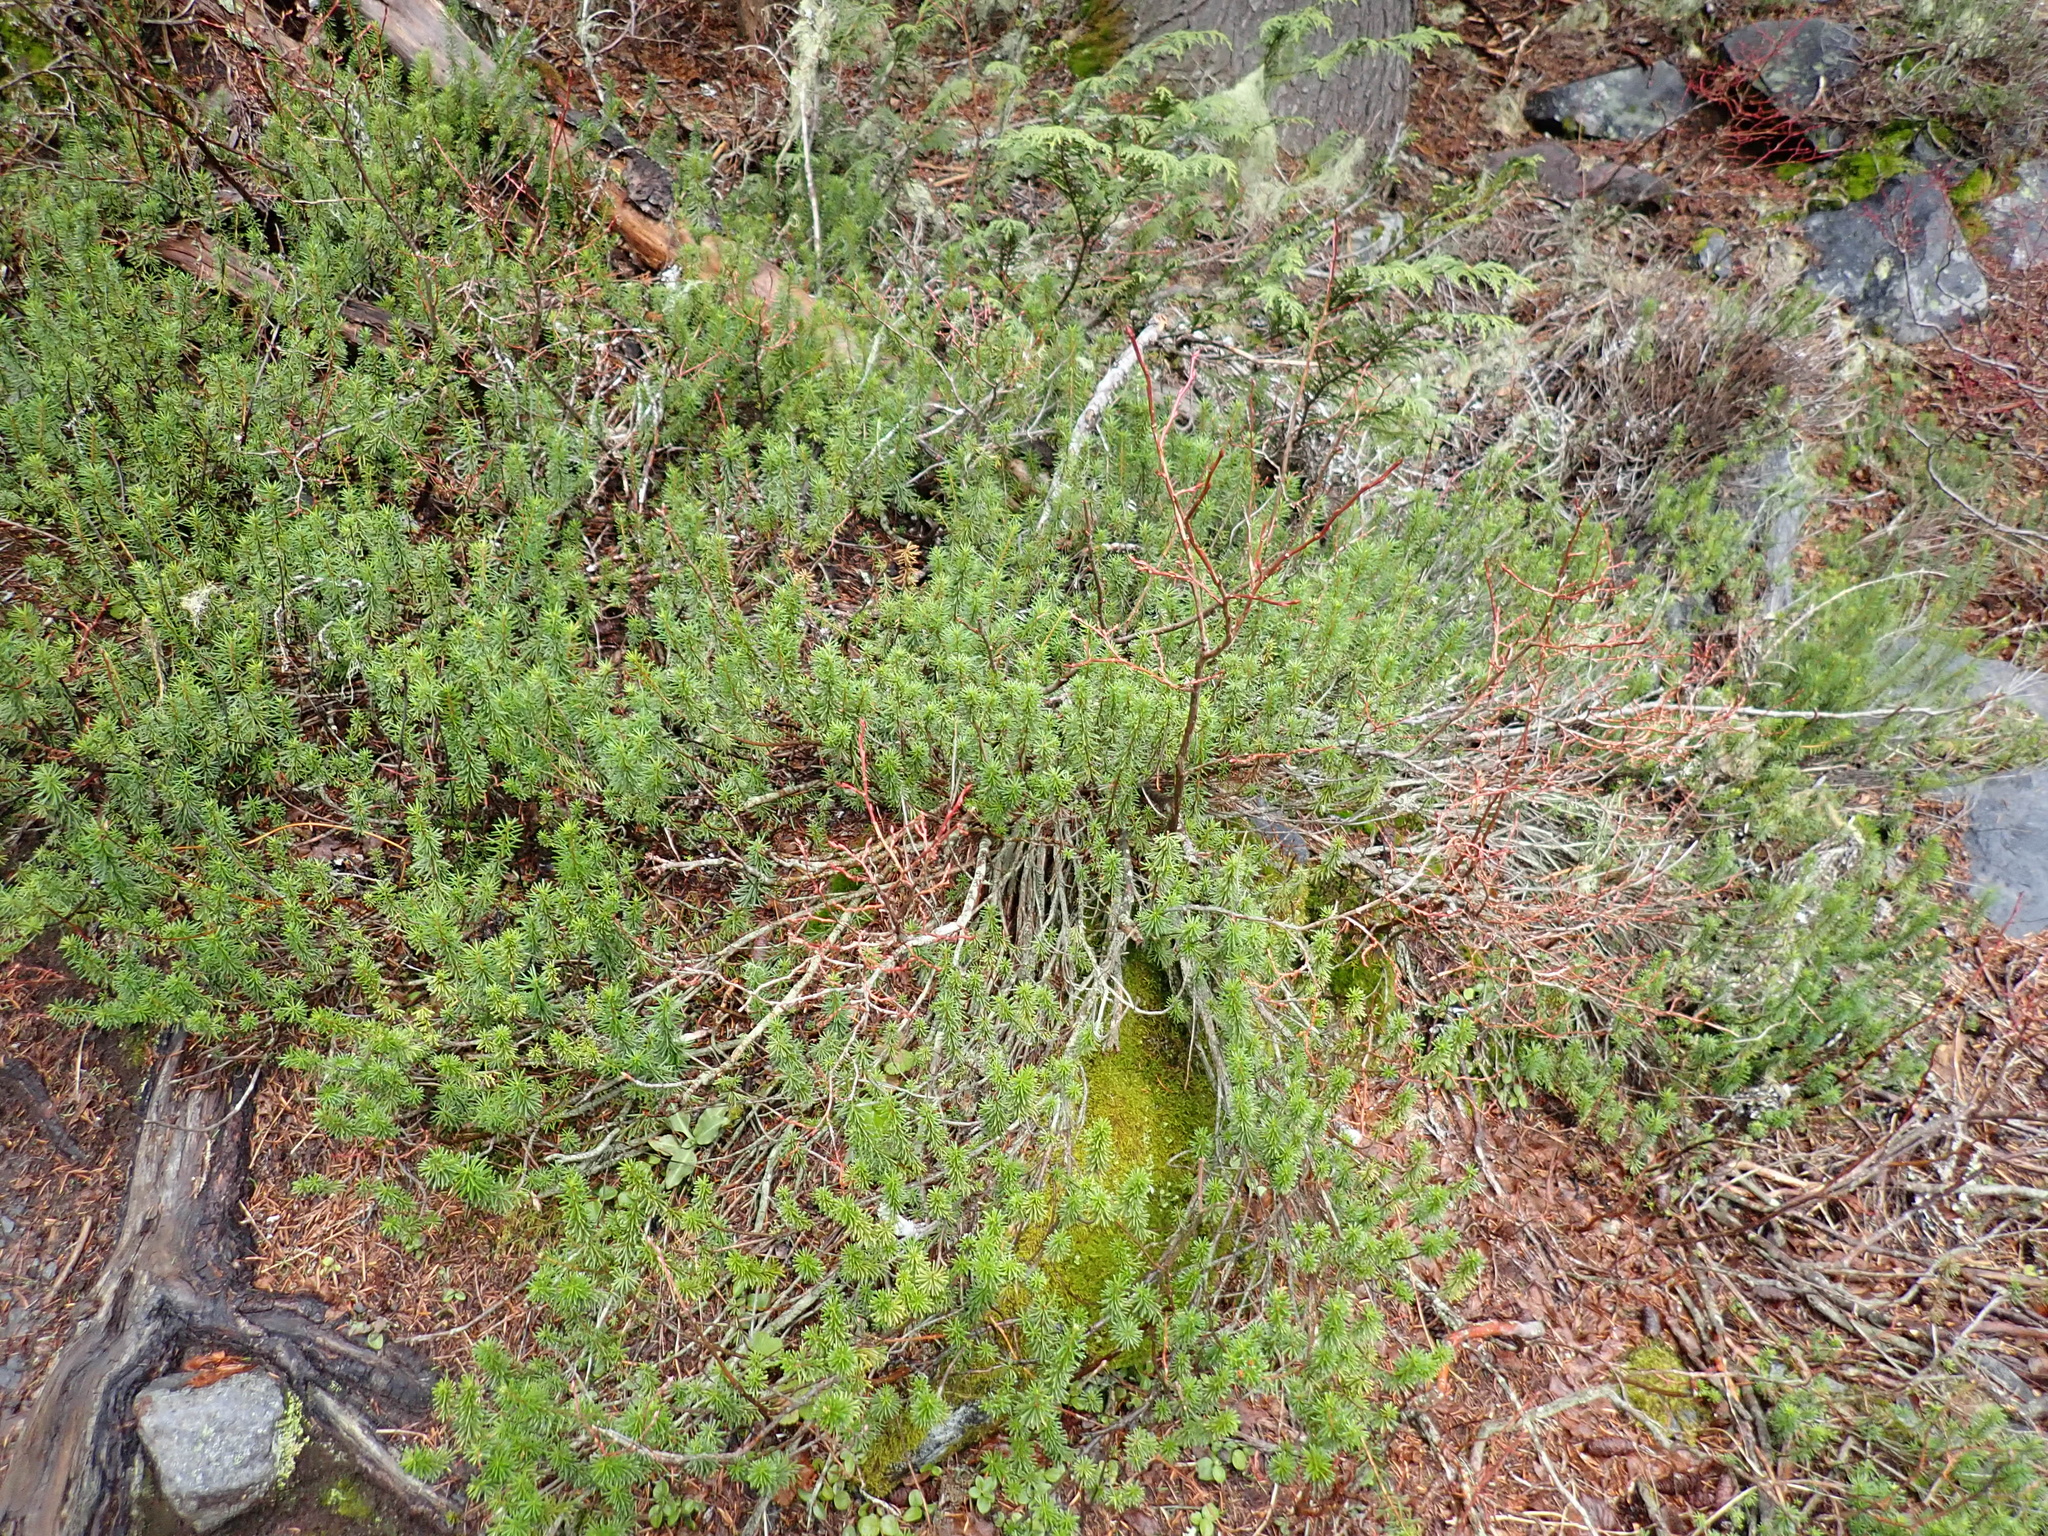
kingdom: Plantae
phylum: Tracheophyta
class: Magnoliopsida
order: Ericales
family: Ericaceae
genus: Phyllodoce
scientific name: Phyllodoce empetriformis
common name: Pink mountain heather
